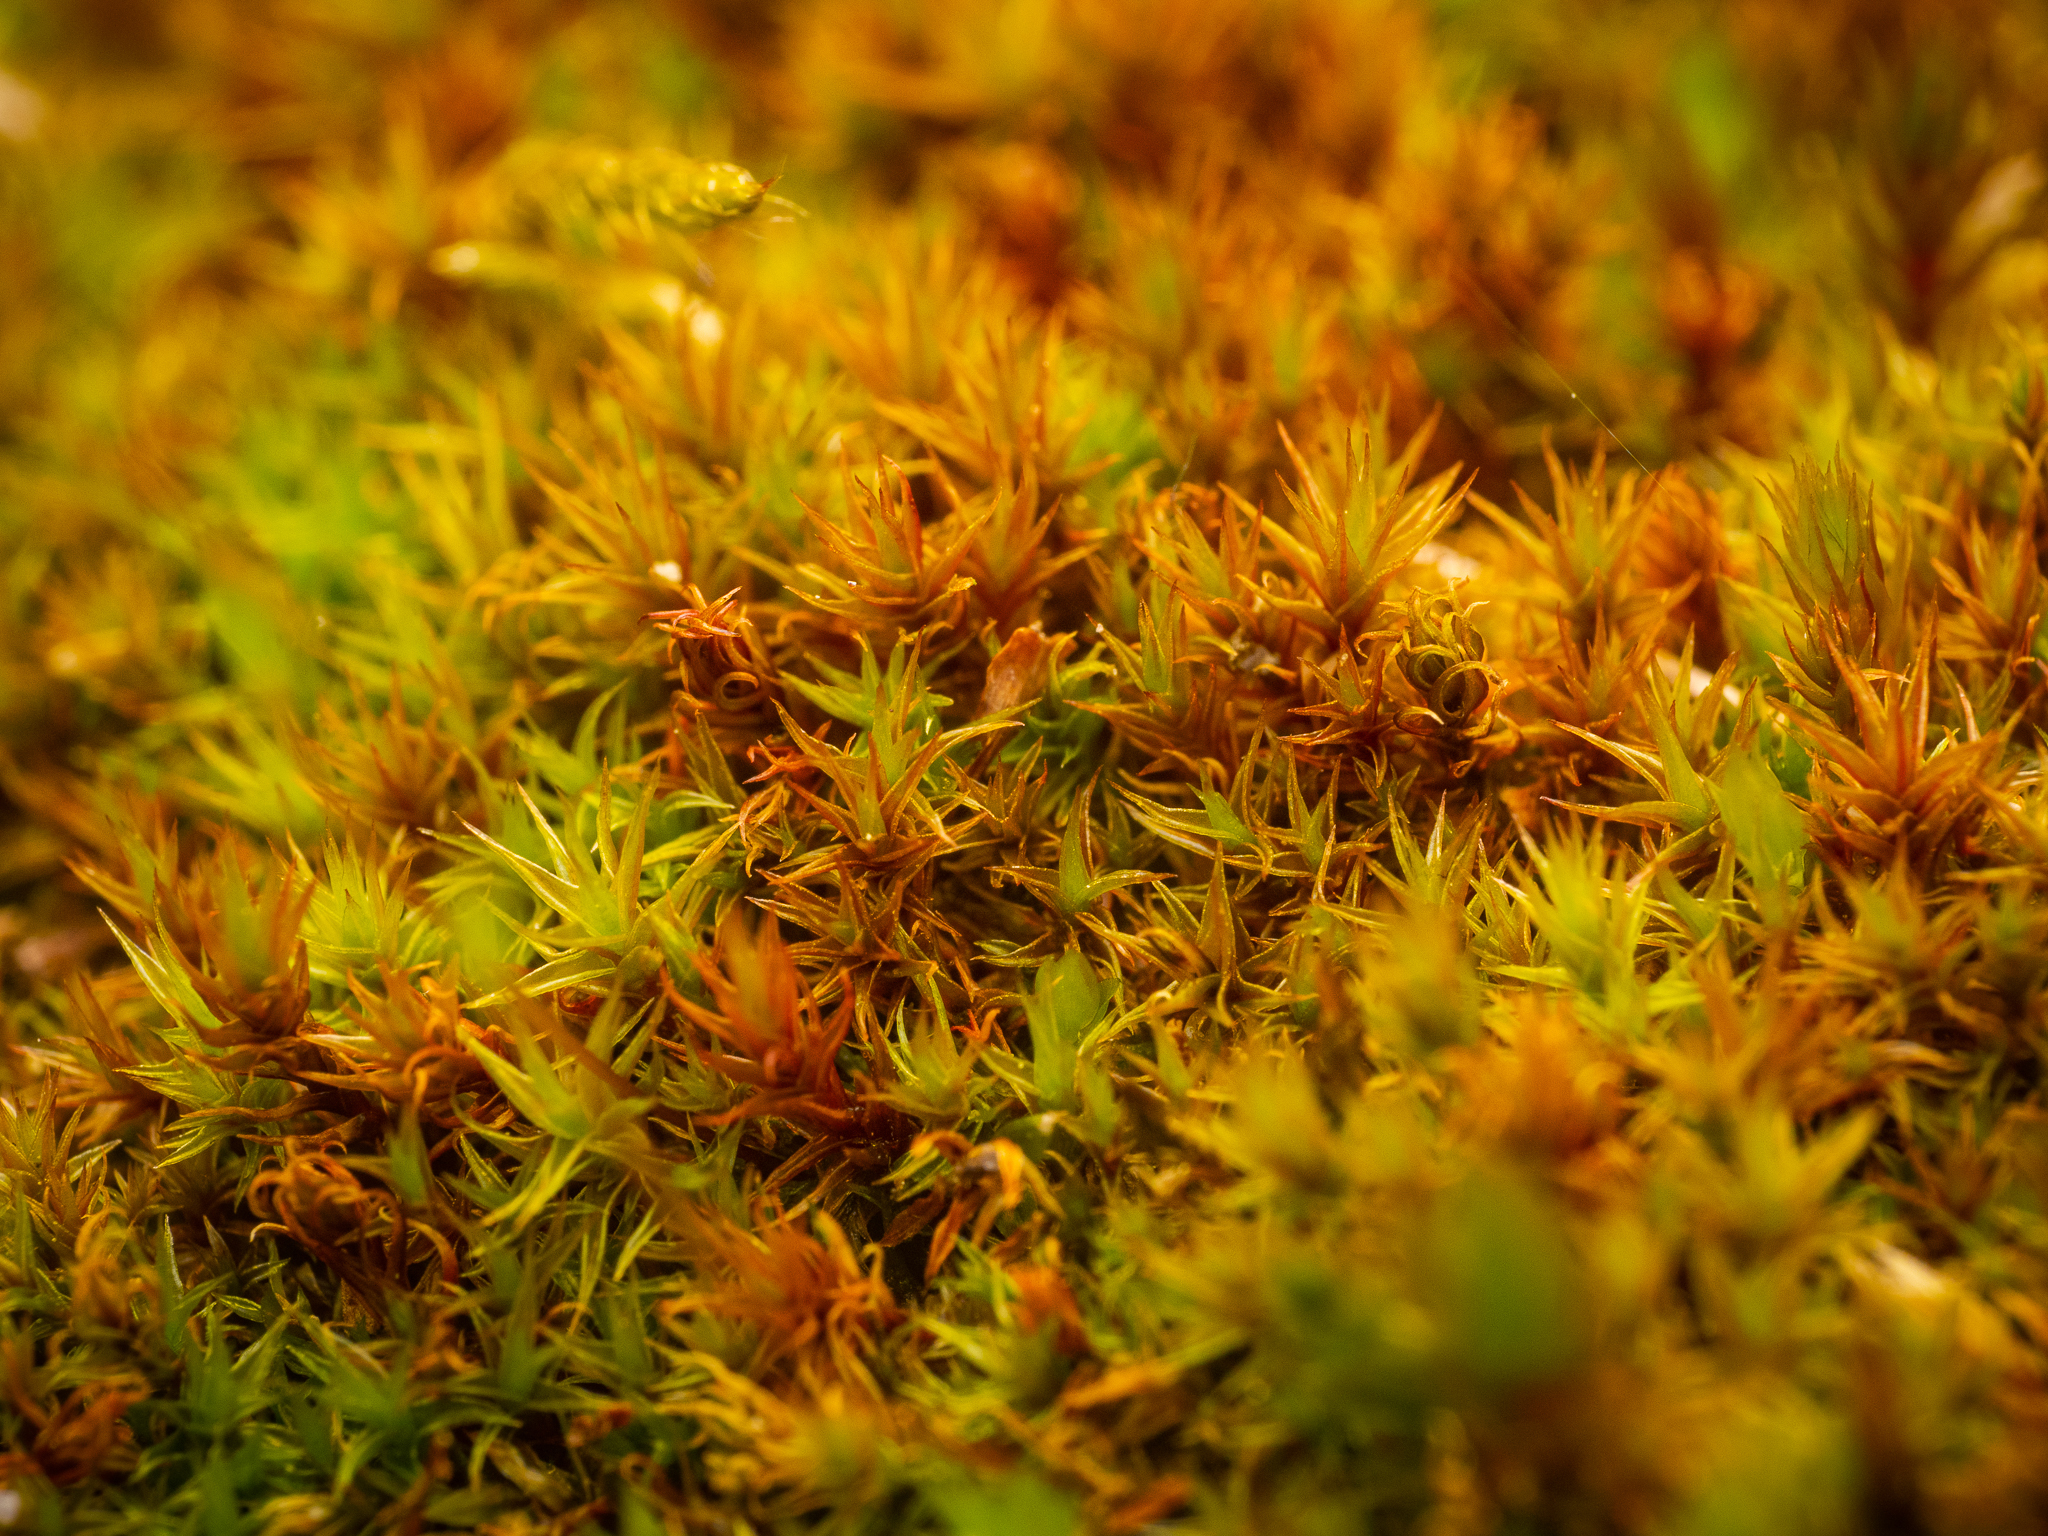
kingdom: Plantae
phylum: Bryophyta
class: Bryopsida
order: Dicranales
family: Ditrichaceae
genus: Ceratodon
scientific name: Ceratodon purpureus
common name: Redshank
